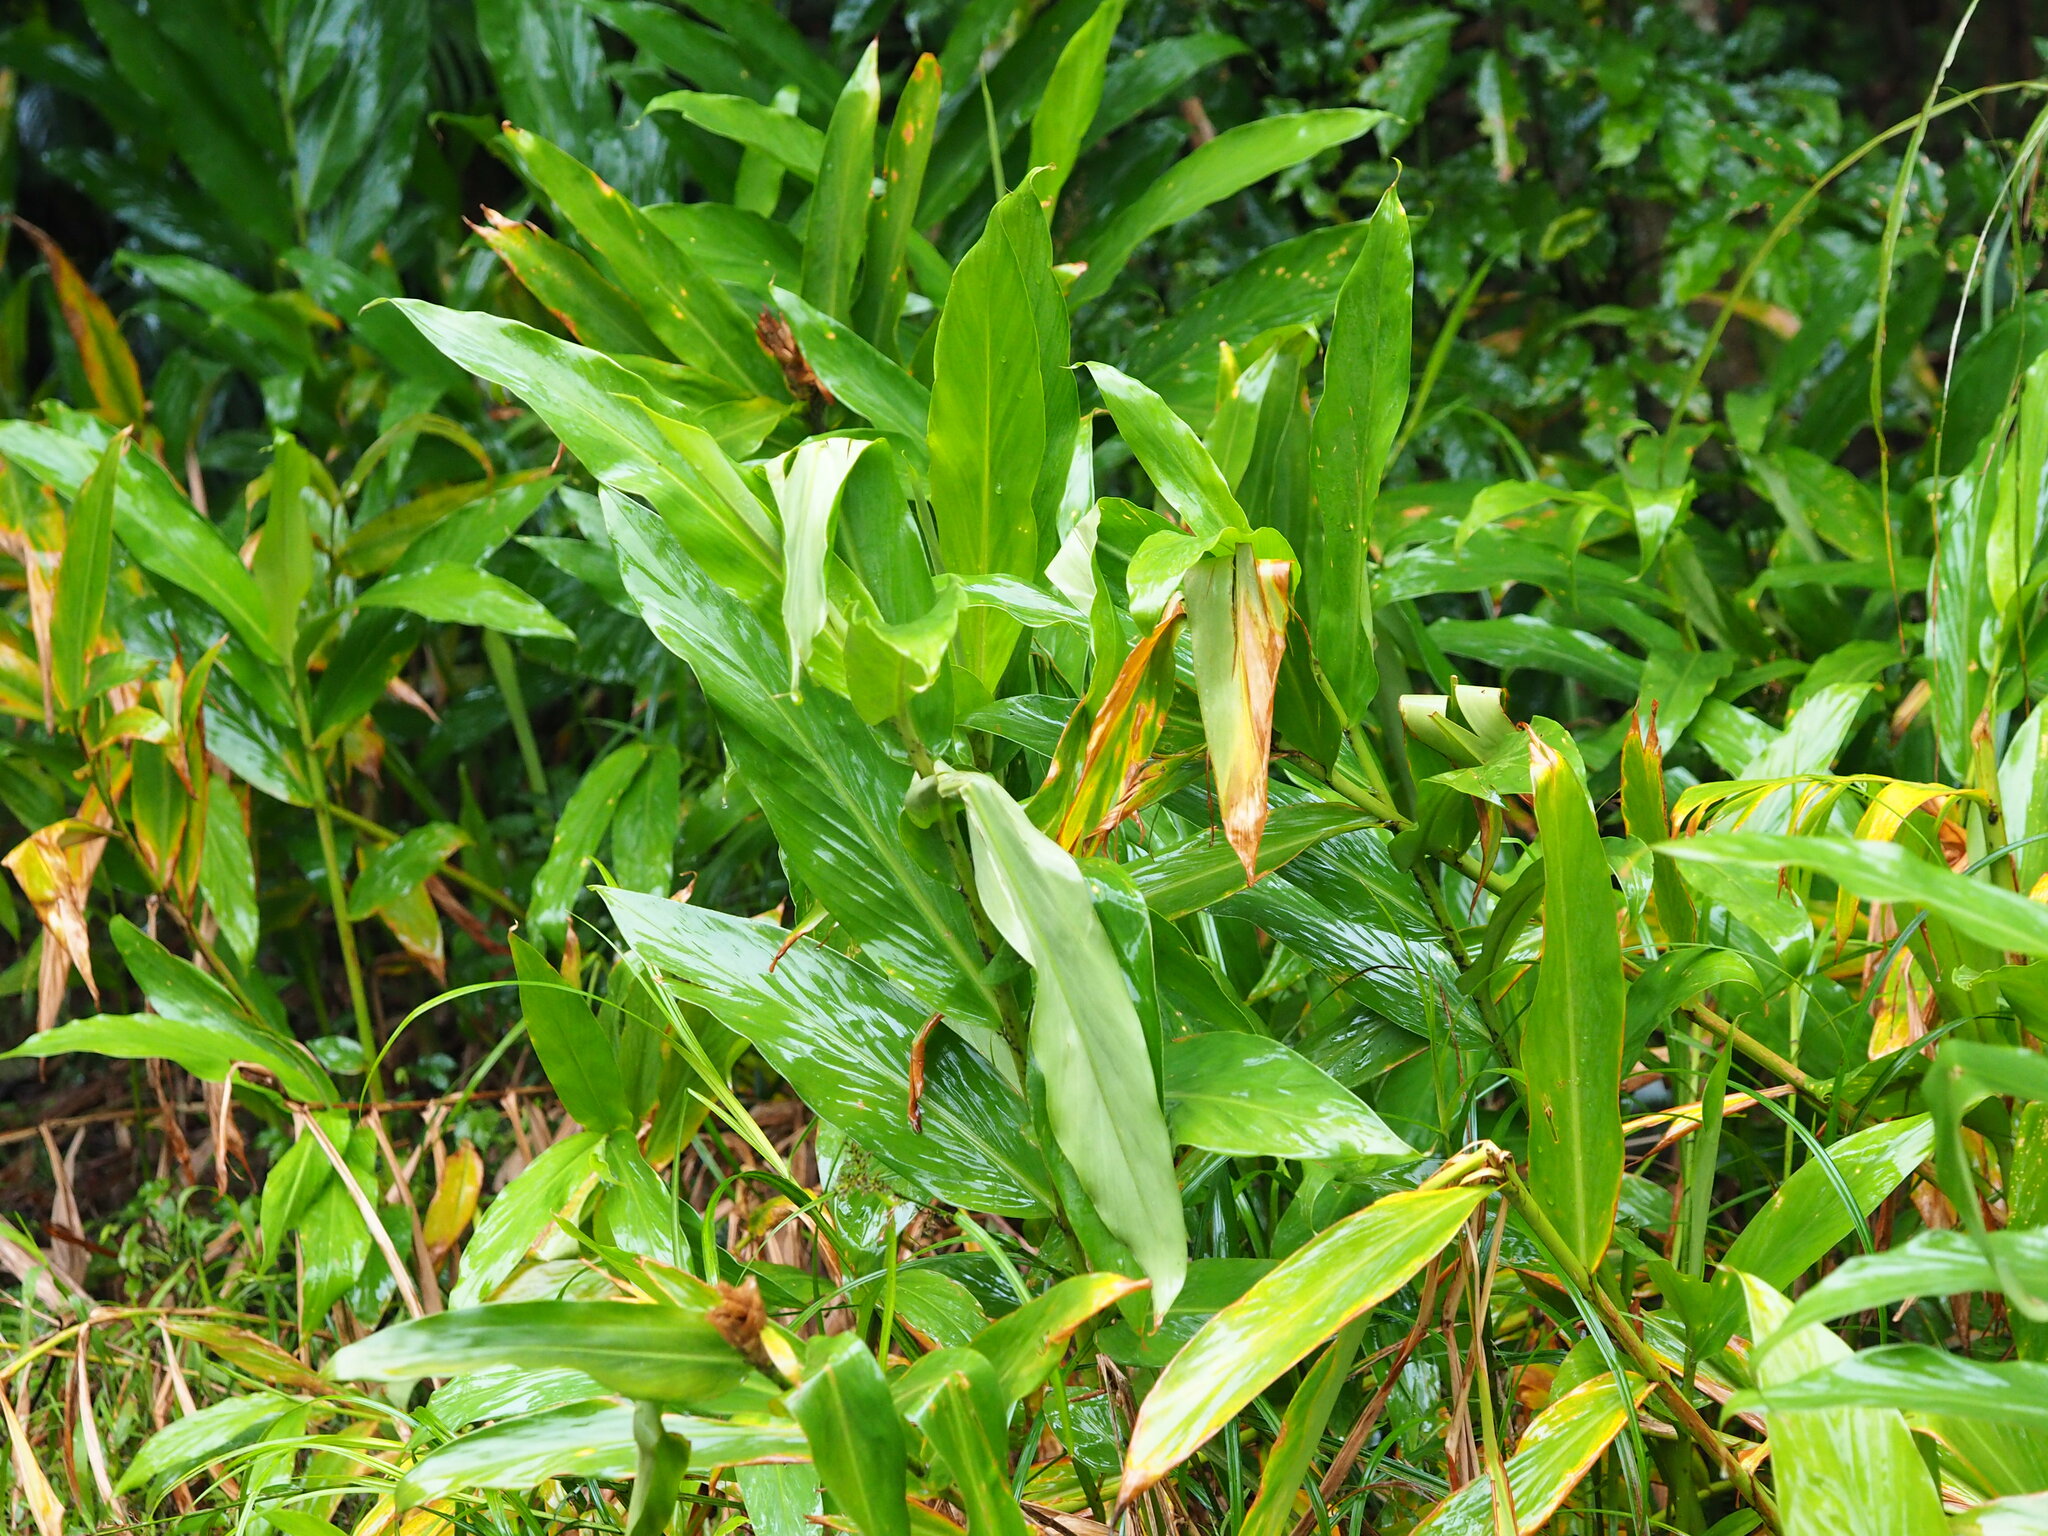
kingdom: Plantae
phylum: Tracheophyta
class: Liliopsida
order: Zingiberales
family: Zingiberaceae
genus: Hedychium
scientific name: Hedychium coronarium
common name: White garland-lily
